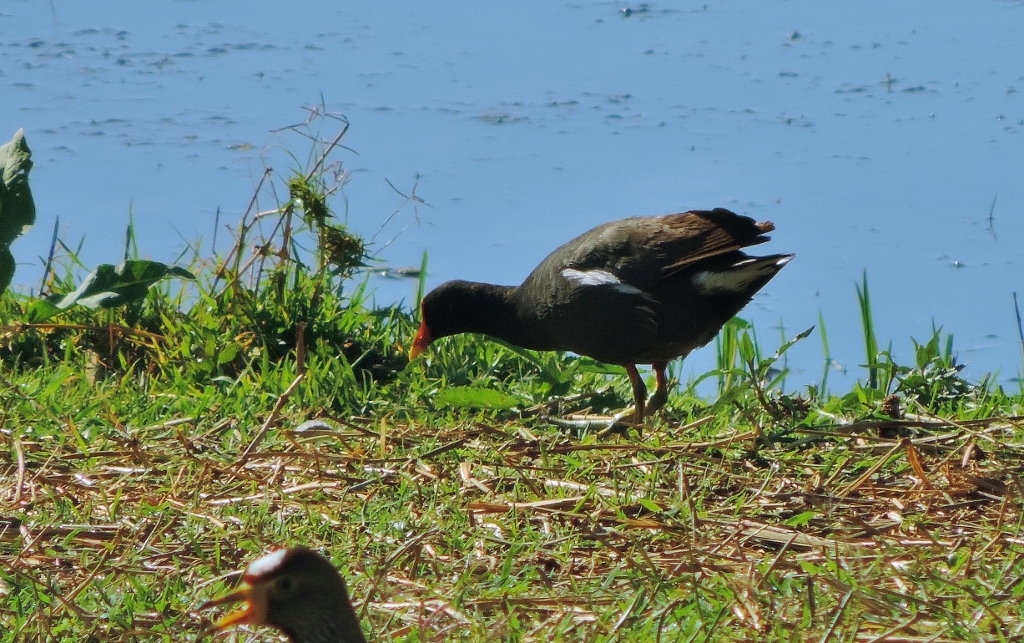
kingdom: Animalia
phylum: Chordata
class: Aves
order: Gruiformes
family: Rallidae
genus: Gallinula
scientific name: Gallinula chloropus
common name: Common moorhen
